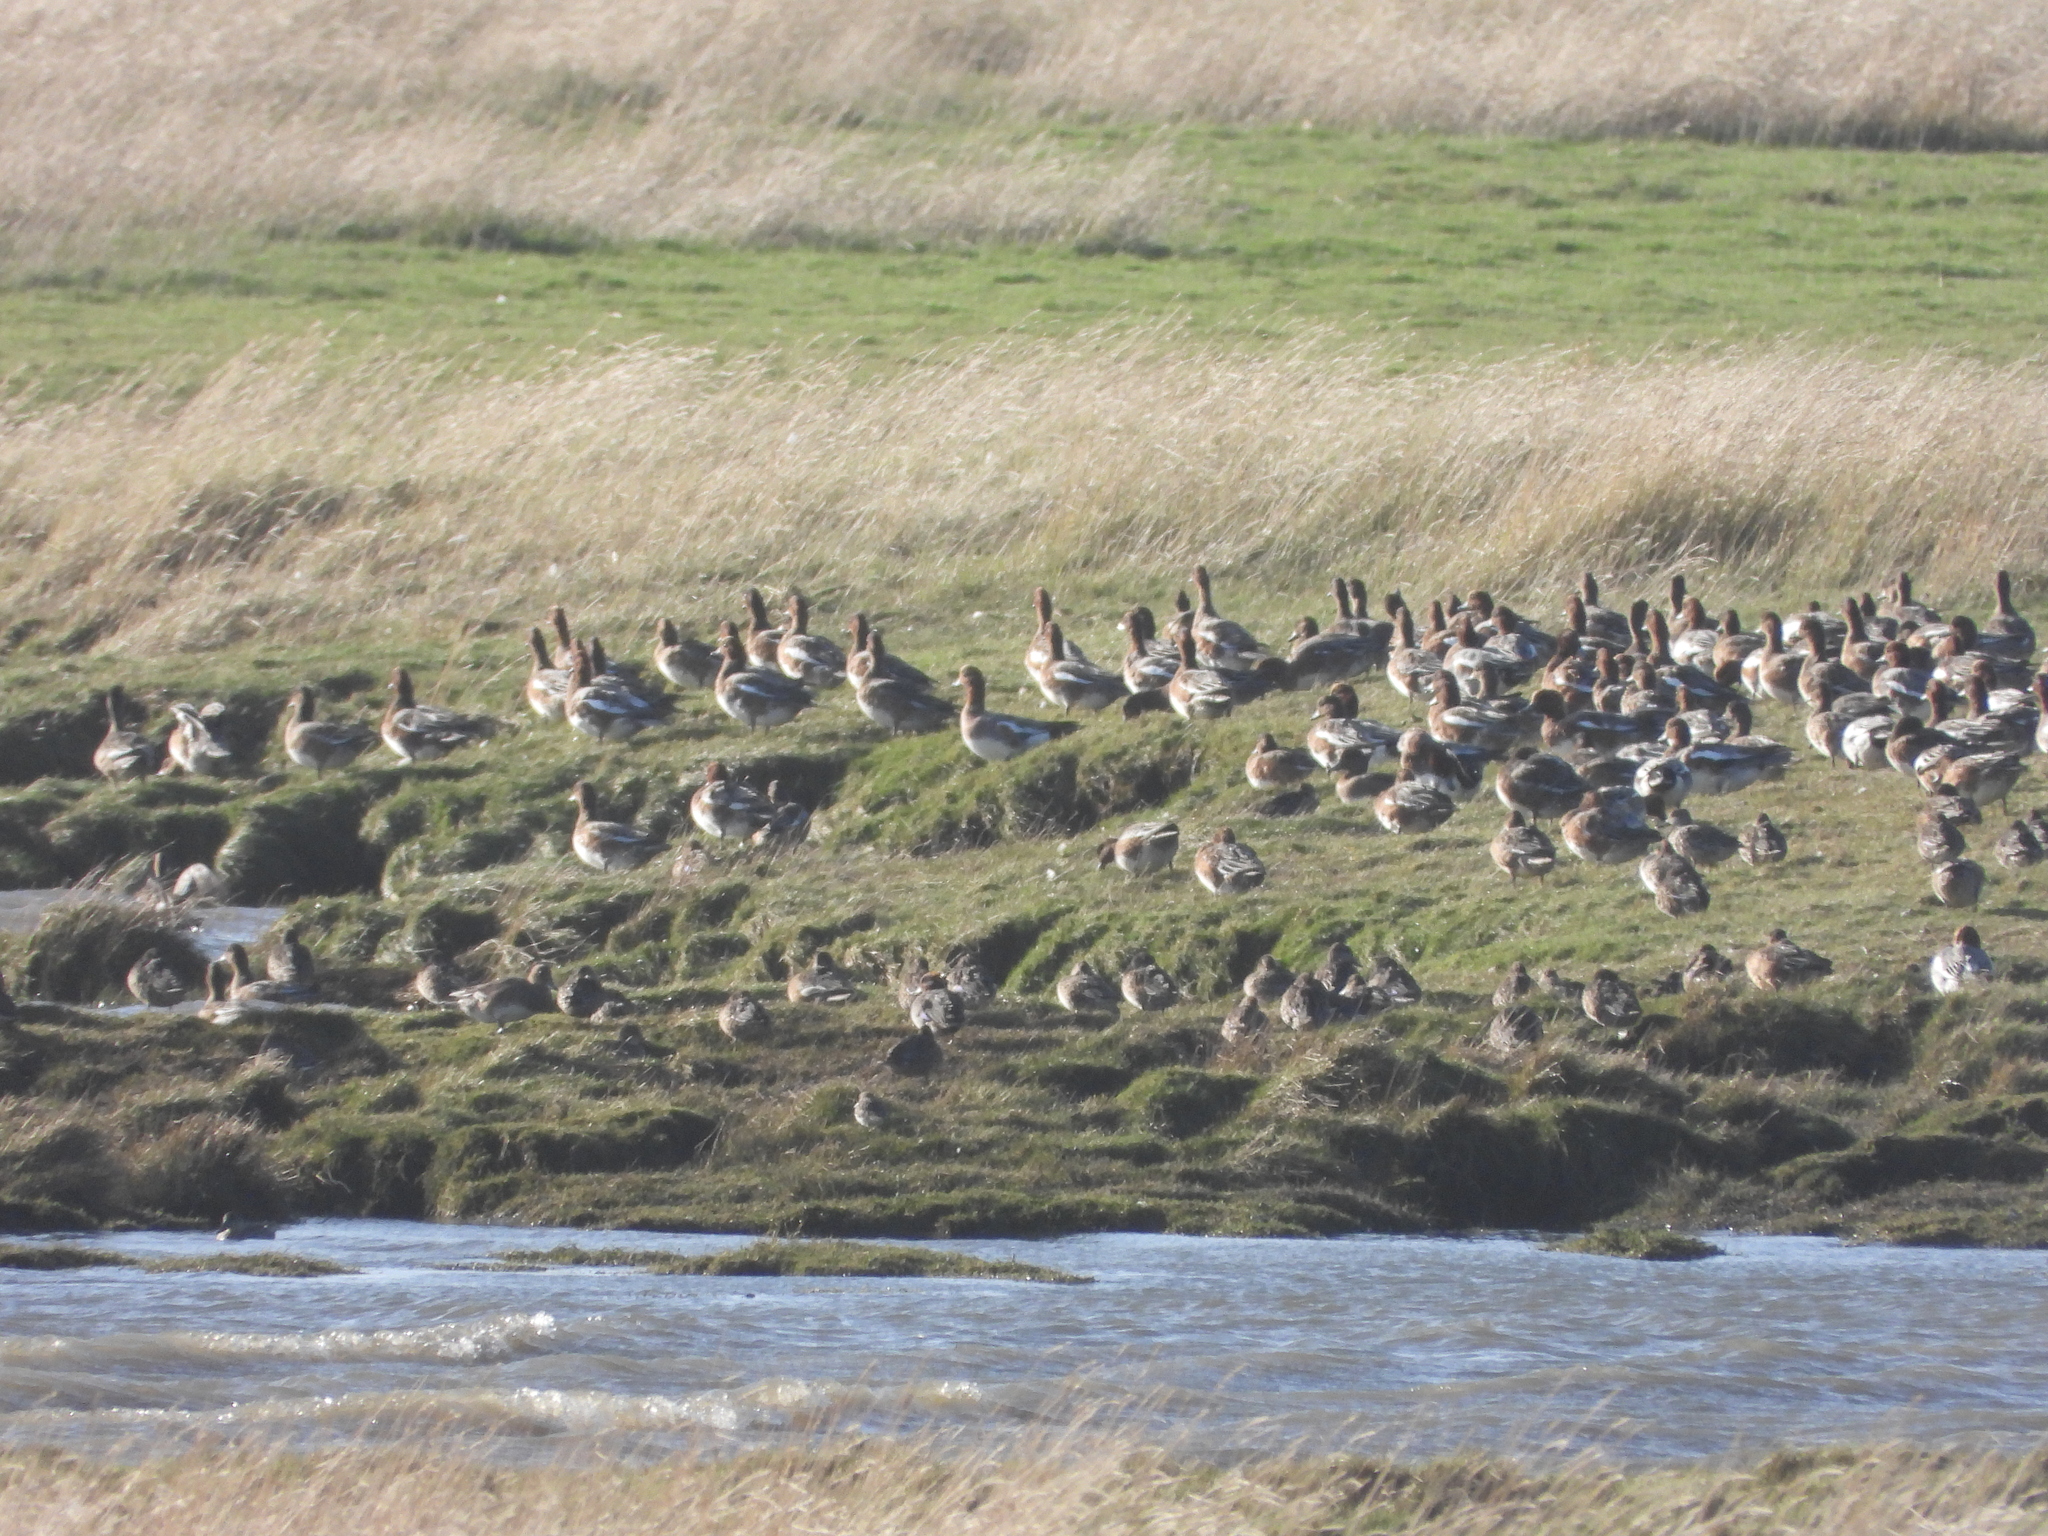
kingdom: Animalia
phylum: Chordata
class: Aves
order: Anseriformes
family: Anatidae
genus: Mareca
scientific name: Mareca penelope
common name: Eurasian wigeon
